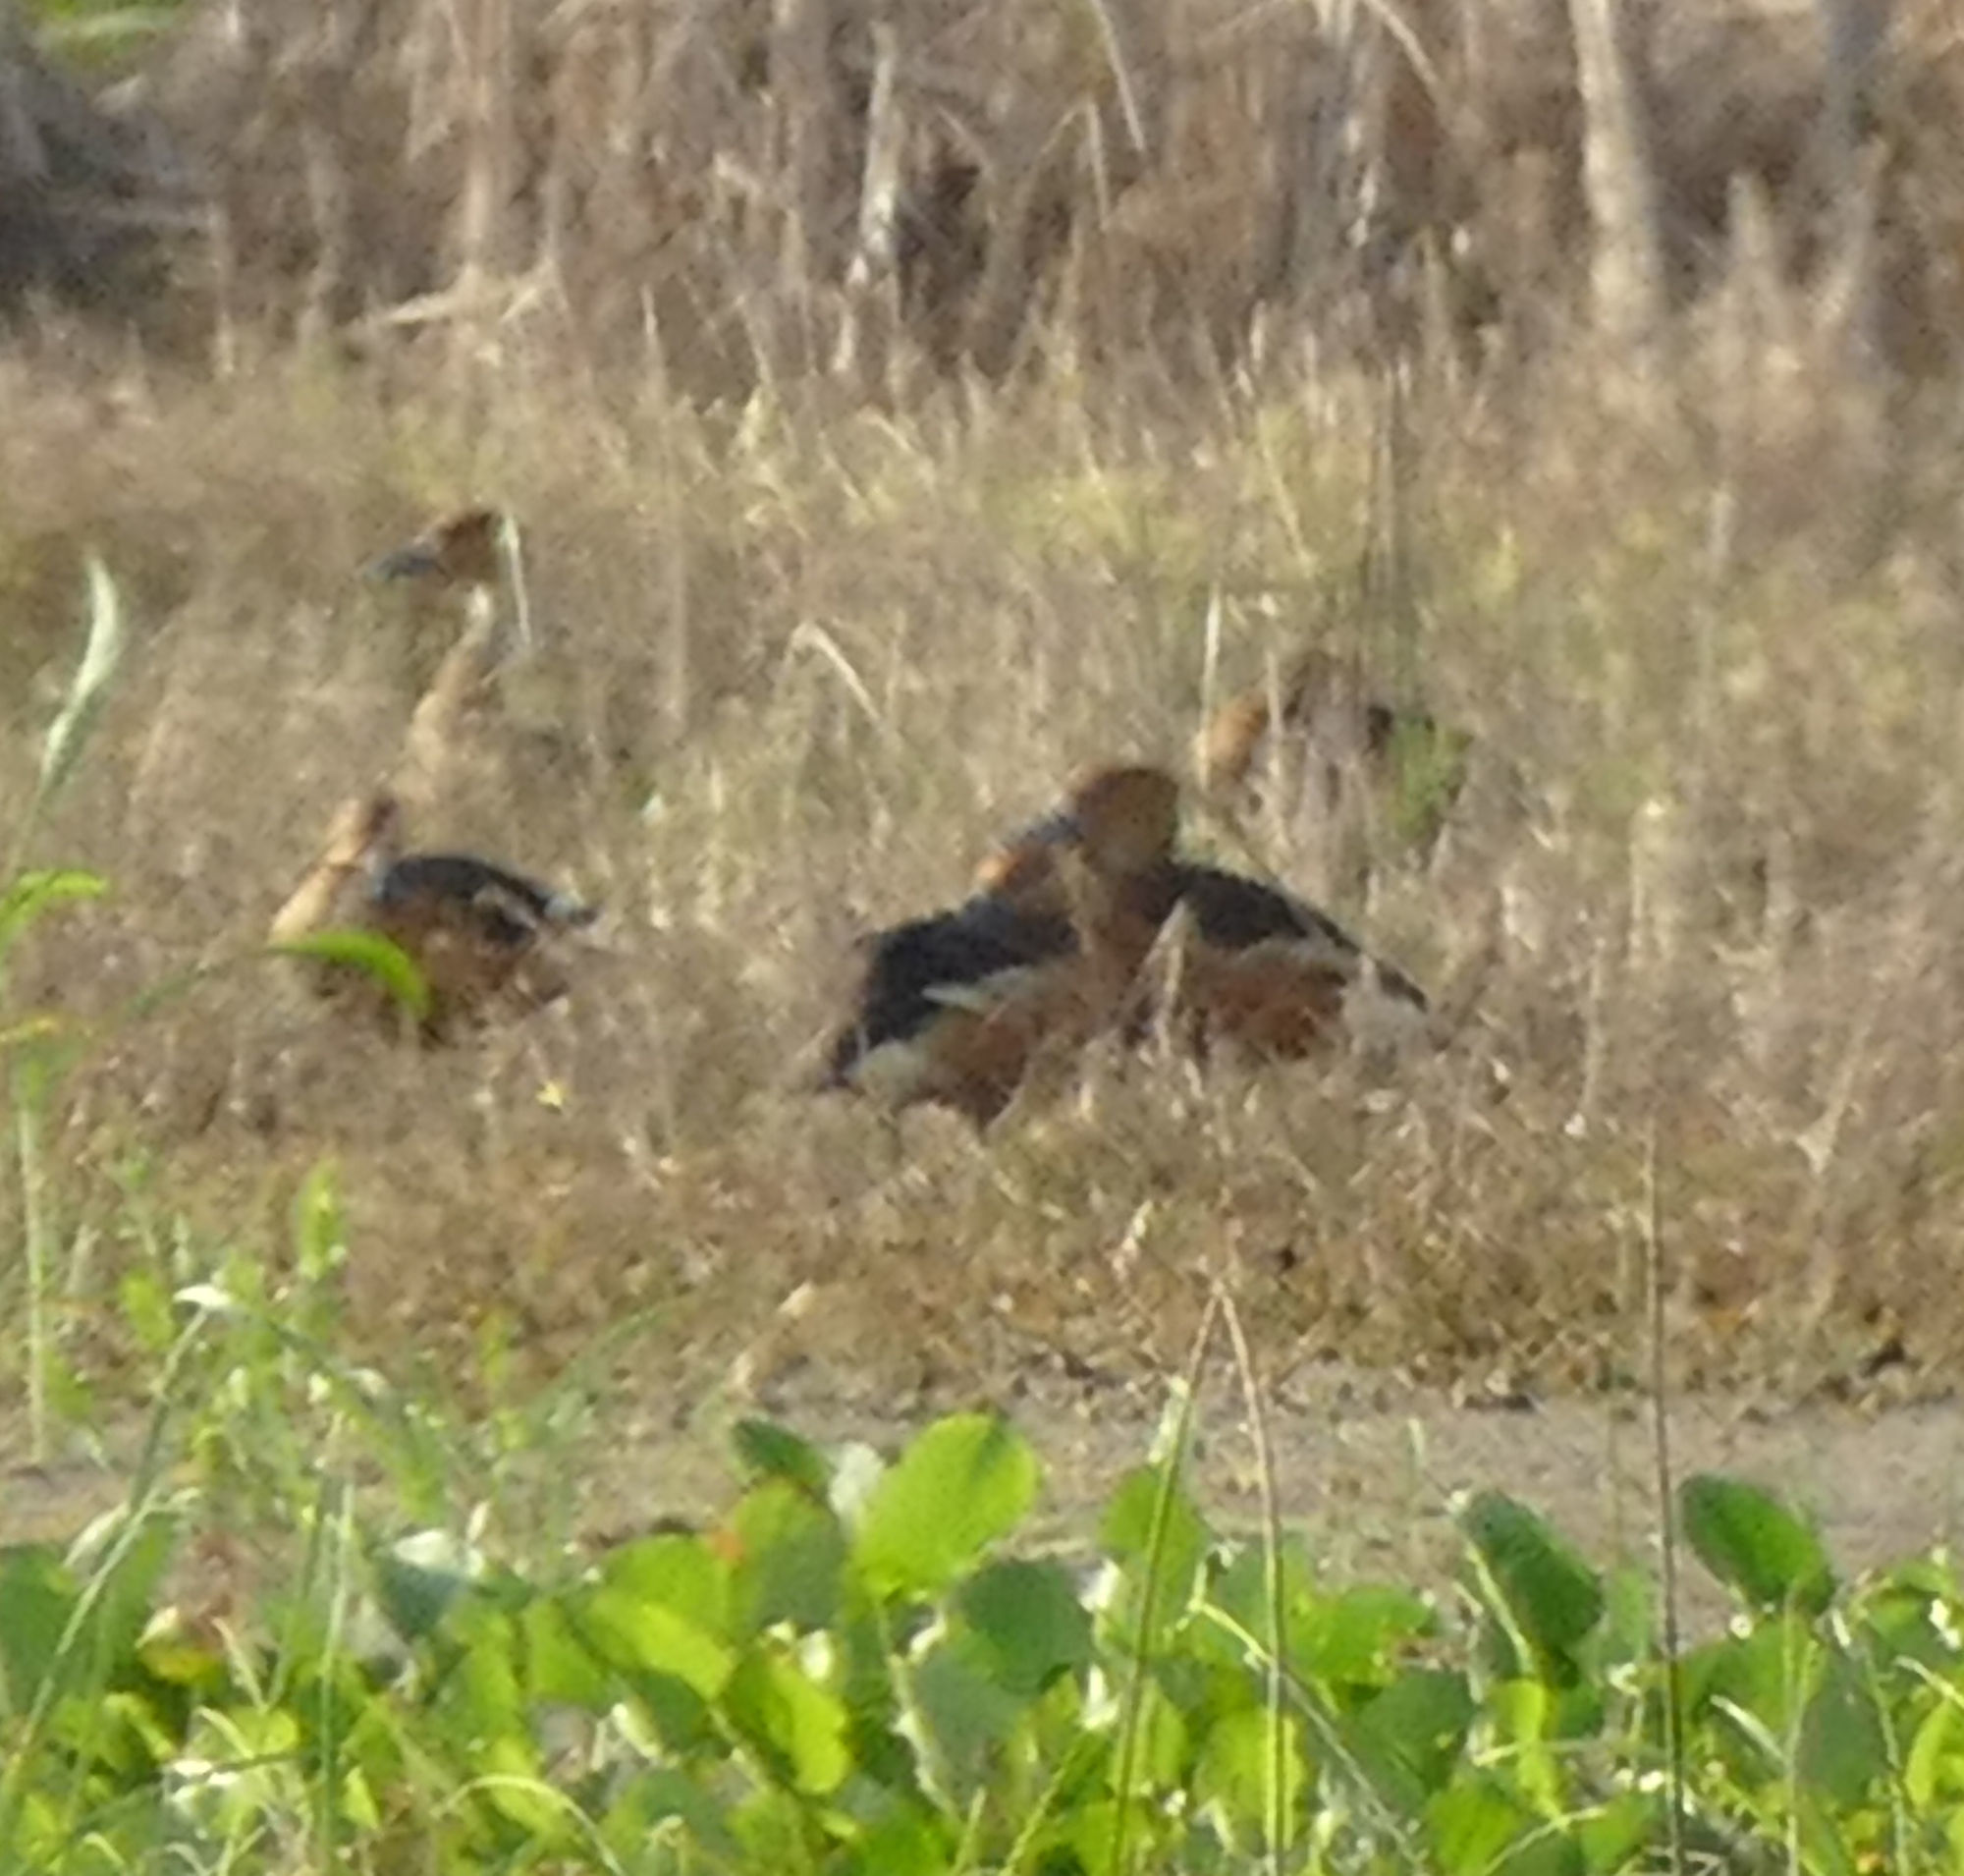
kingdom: Animalia
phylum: Chordata
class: Aves
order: Anseriformes
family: Anatidae
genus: Dendrocygna
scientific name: Dendrocygna bicolor
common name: Fulvous whistling duck
